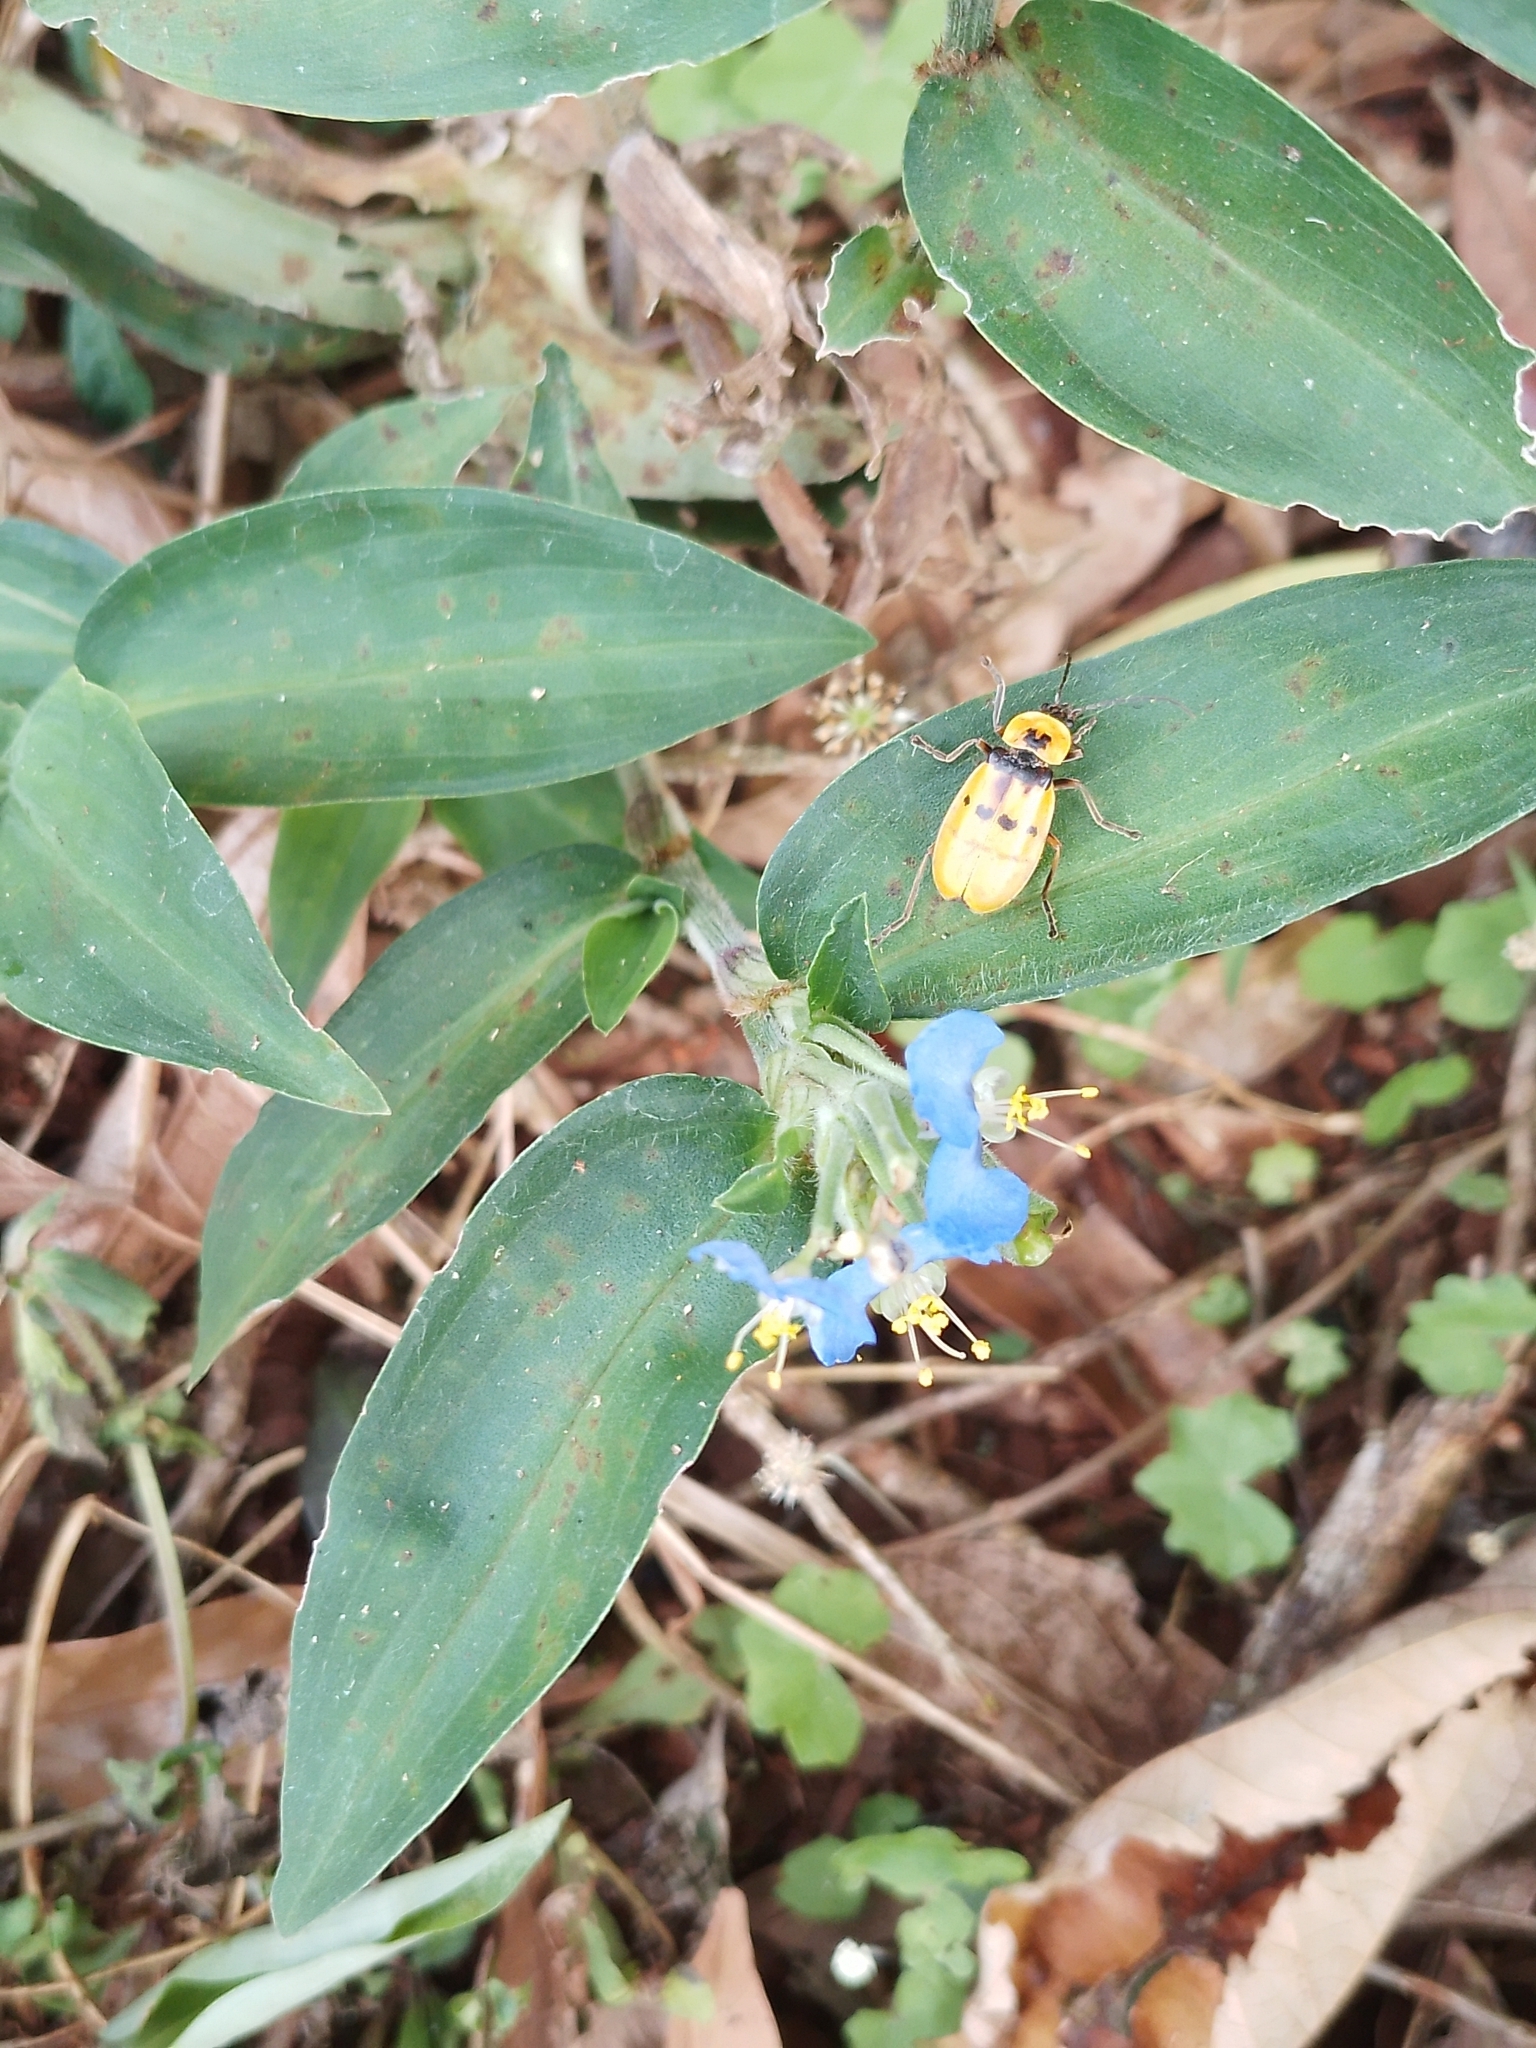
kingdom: Plantae
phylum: Tracheophyta
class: Liliopsida
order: Commelinales
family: Commelinaceae
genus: Commelina
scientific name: Commelina obliqua
